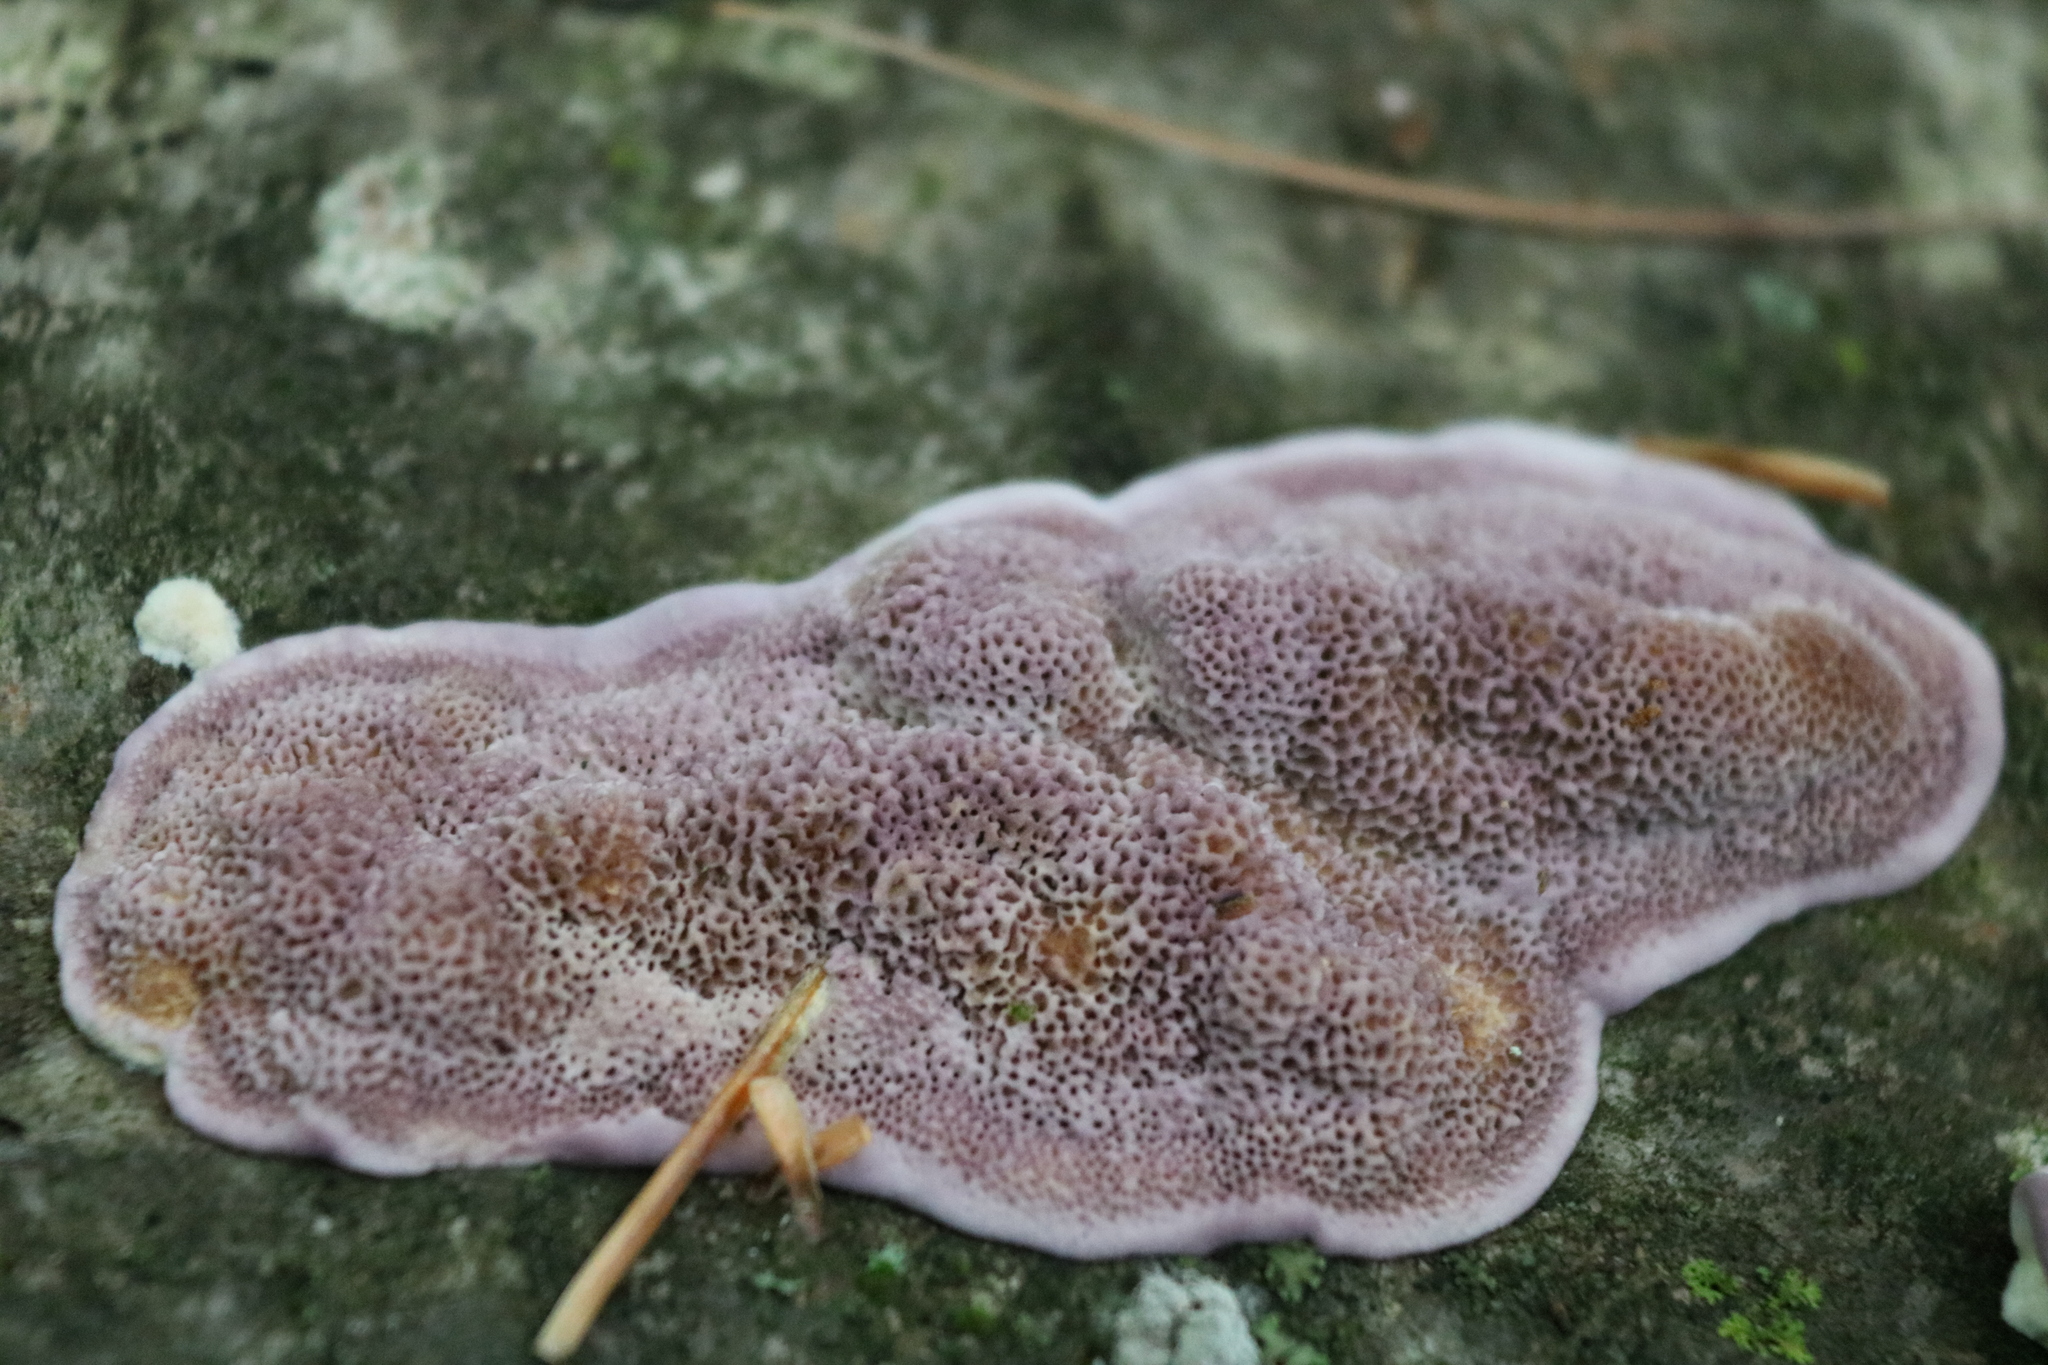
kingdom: Fungi
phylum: Basidiomycota
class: Agaricomycetes
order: Hymenochaetales
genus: Trichaptum
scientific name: Trichaptum subchartaceum
